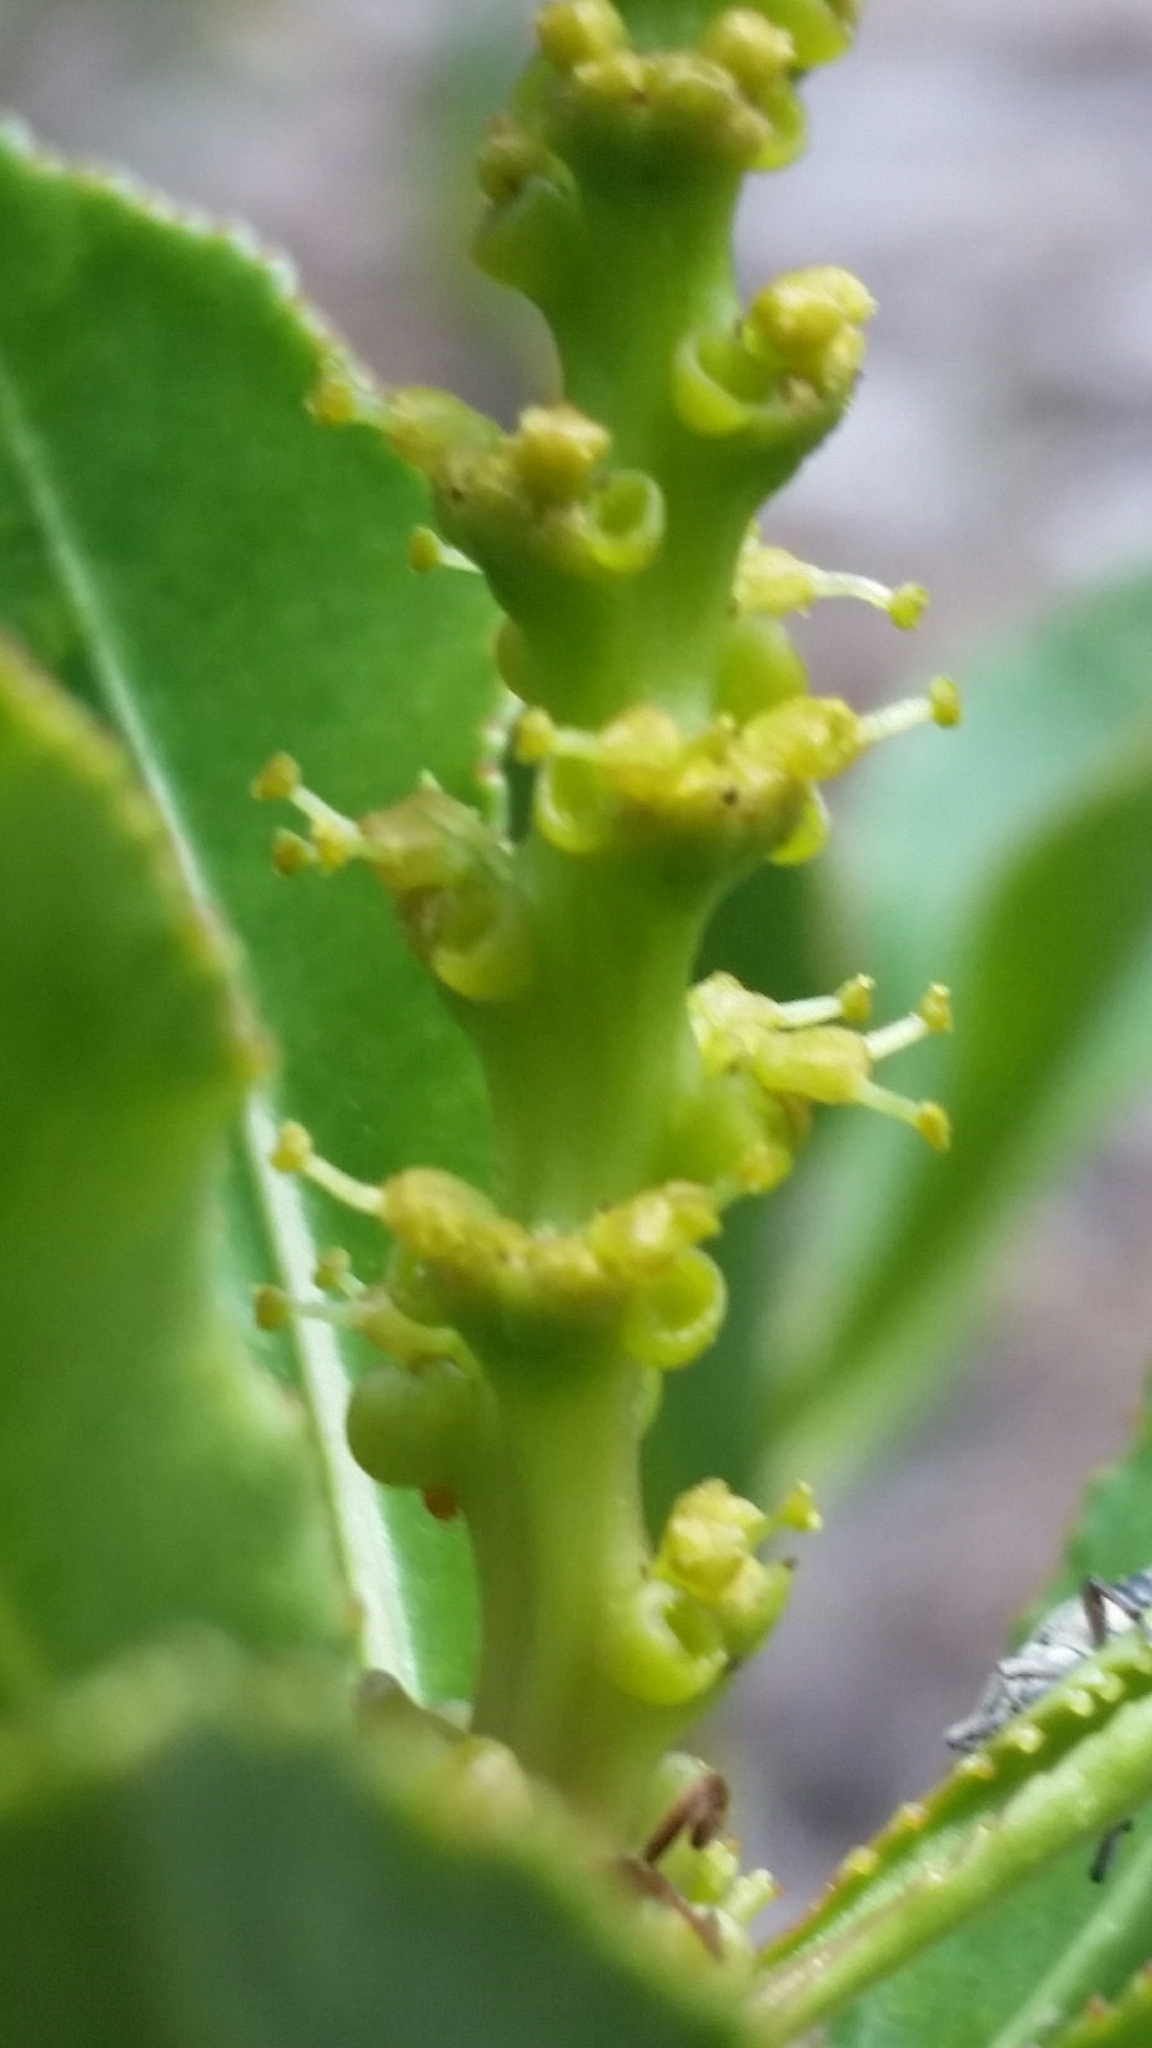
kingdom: Plantae
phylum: Tracheophyta
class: Magnoliopsida
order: Malpighiales
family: Euphorbiaceae
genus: Stillingia
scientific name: Stillingia sylvatica
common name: Queen's-delight
